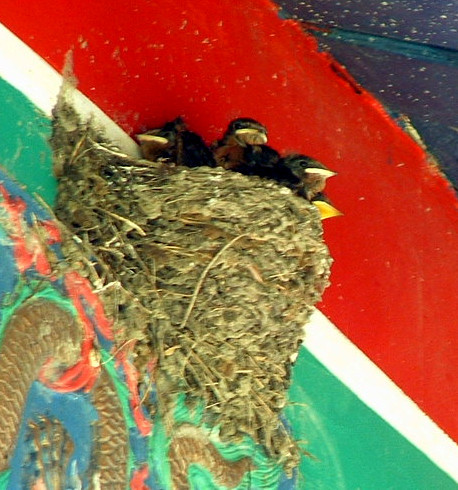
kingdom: Animalia
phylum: Chordata
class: Aves
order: Passeriformes
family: Hirundinidae
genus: Hirundo
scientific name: Hirundo rustica
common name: Barn swallow
